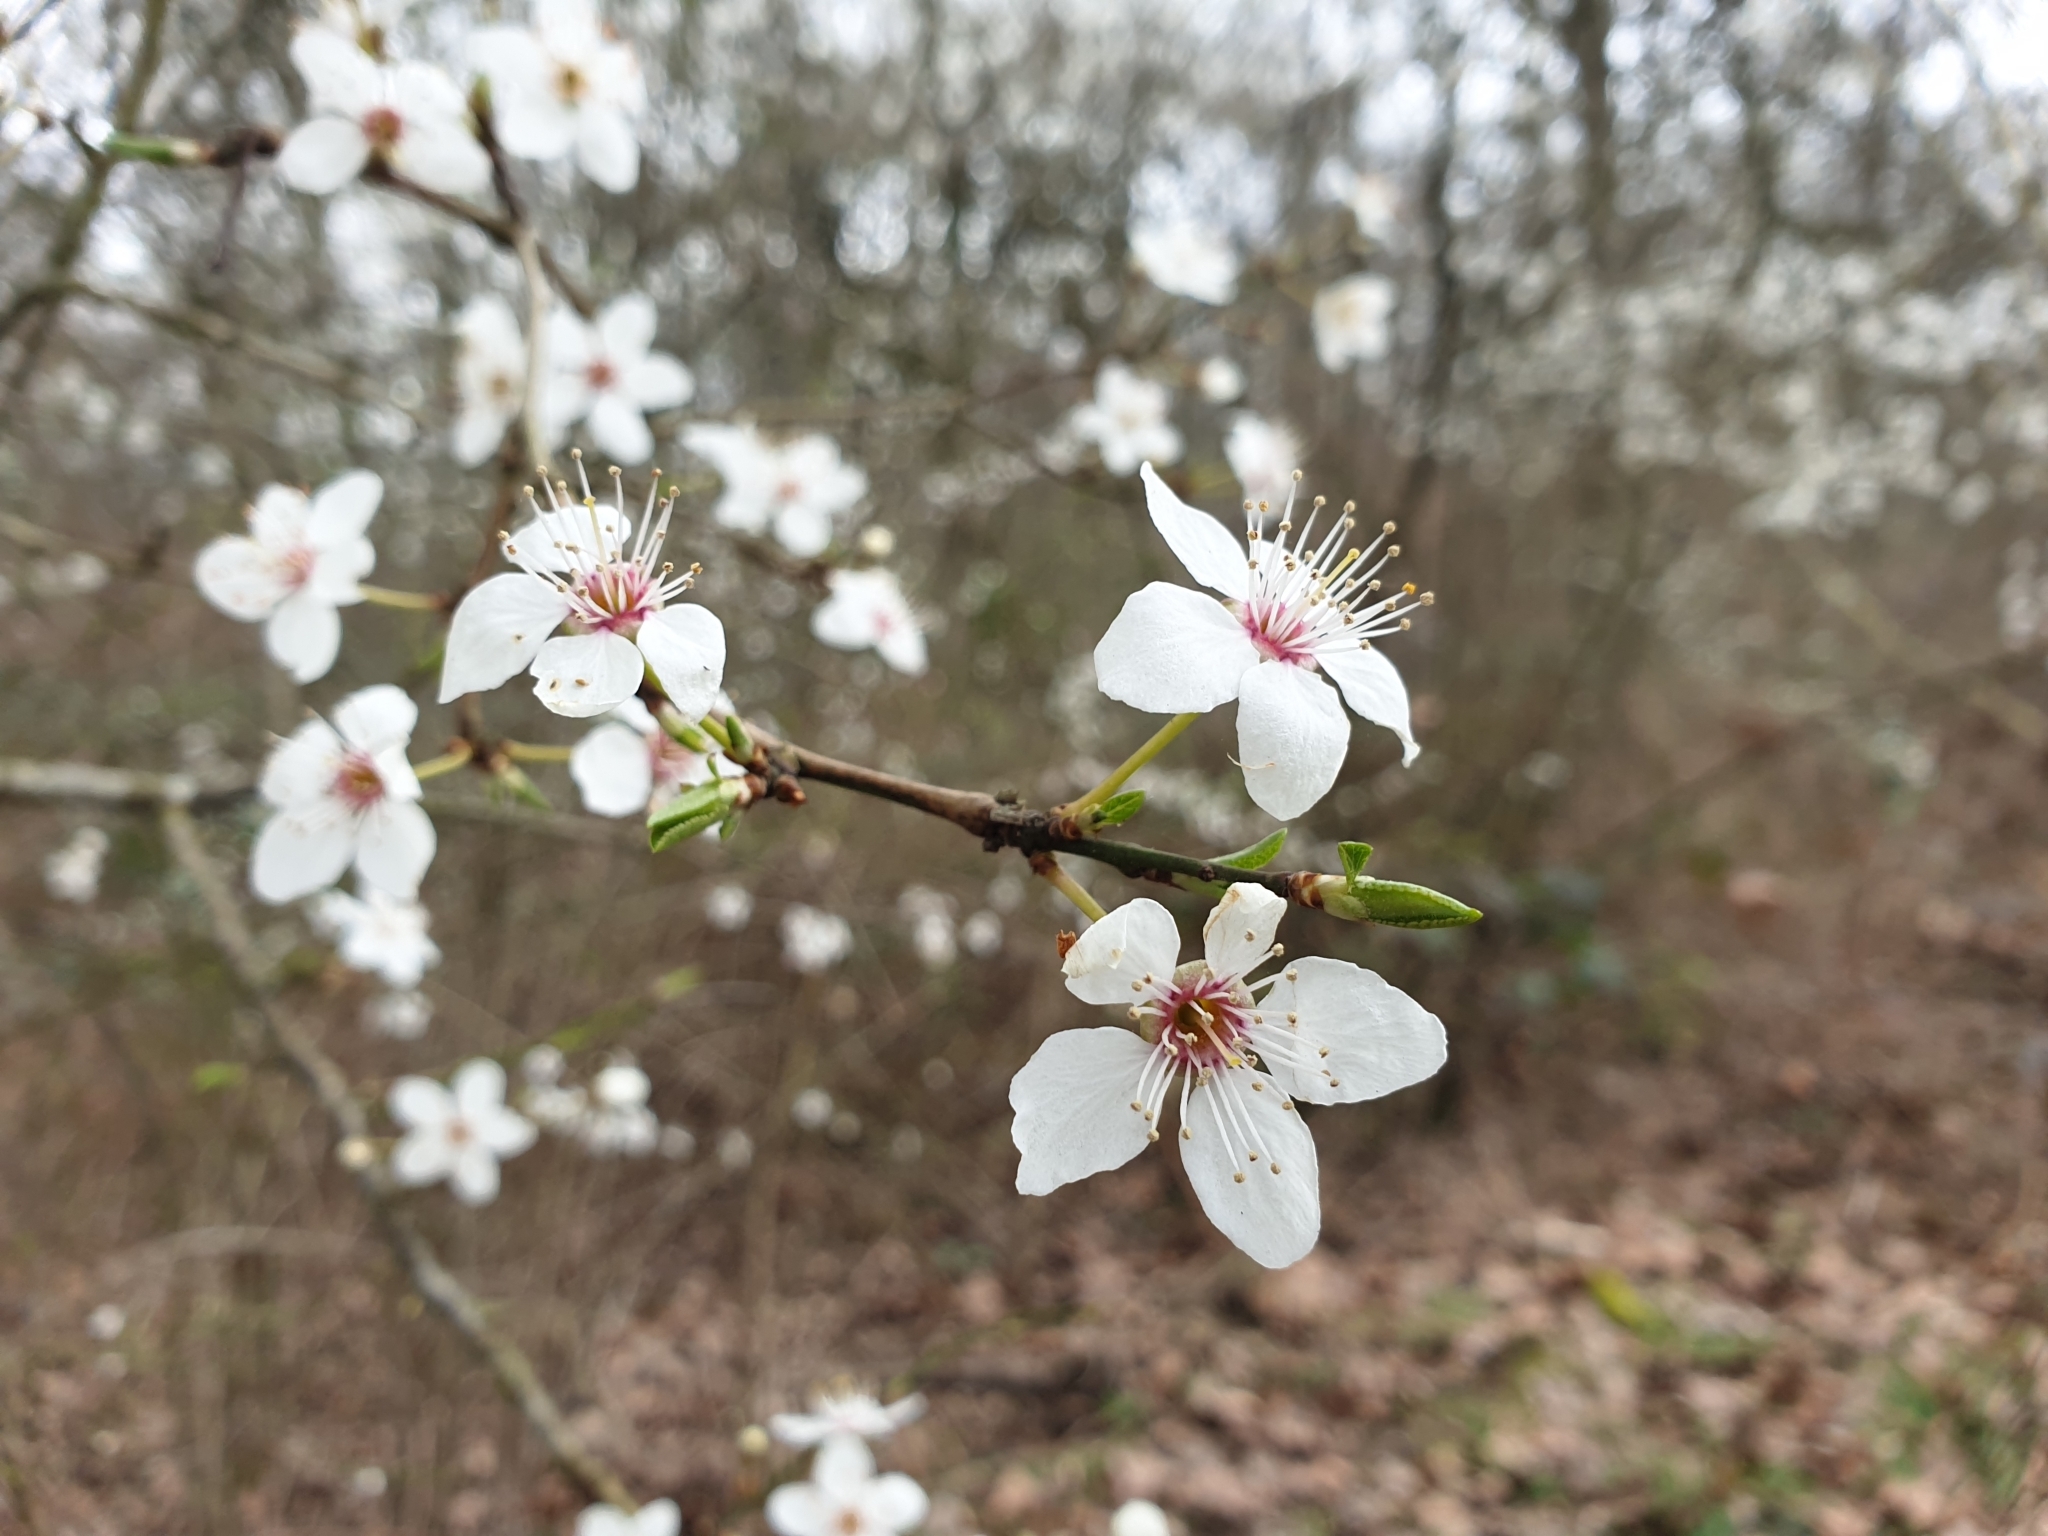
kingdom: Plantae
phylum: Tracheophyta
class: Magnoliopsida
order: Rosales
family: Rosaceae
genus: Prunus
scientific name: Prunus cerasifera
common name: Cherry plum
